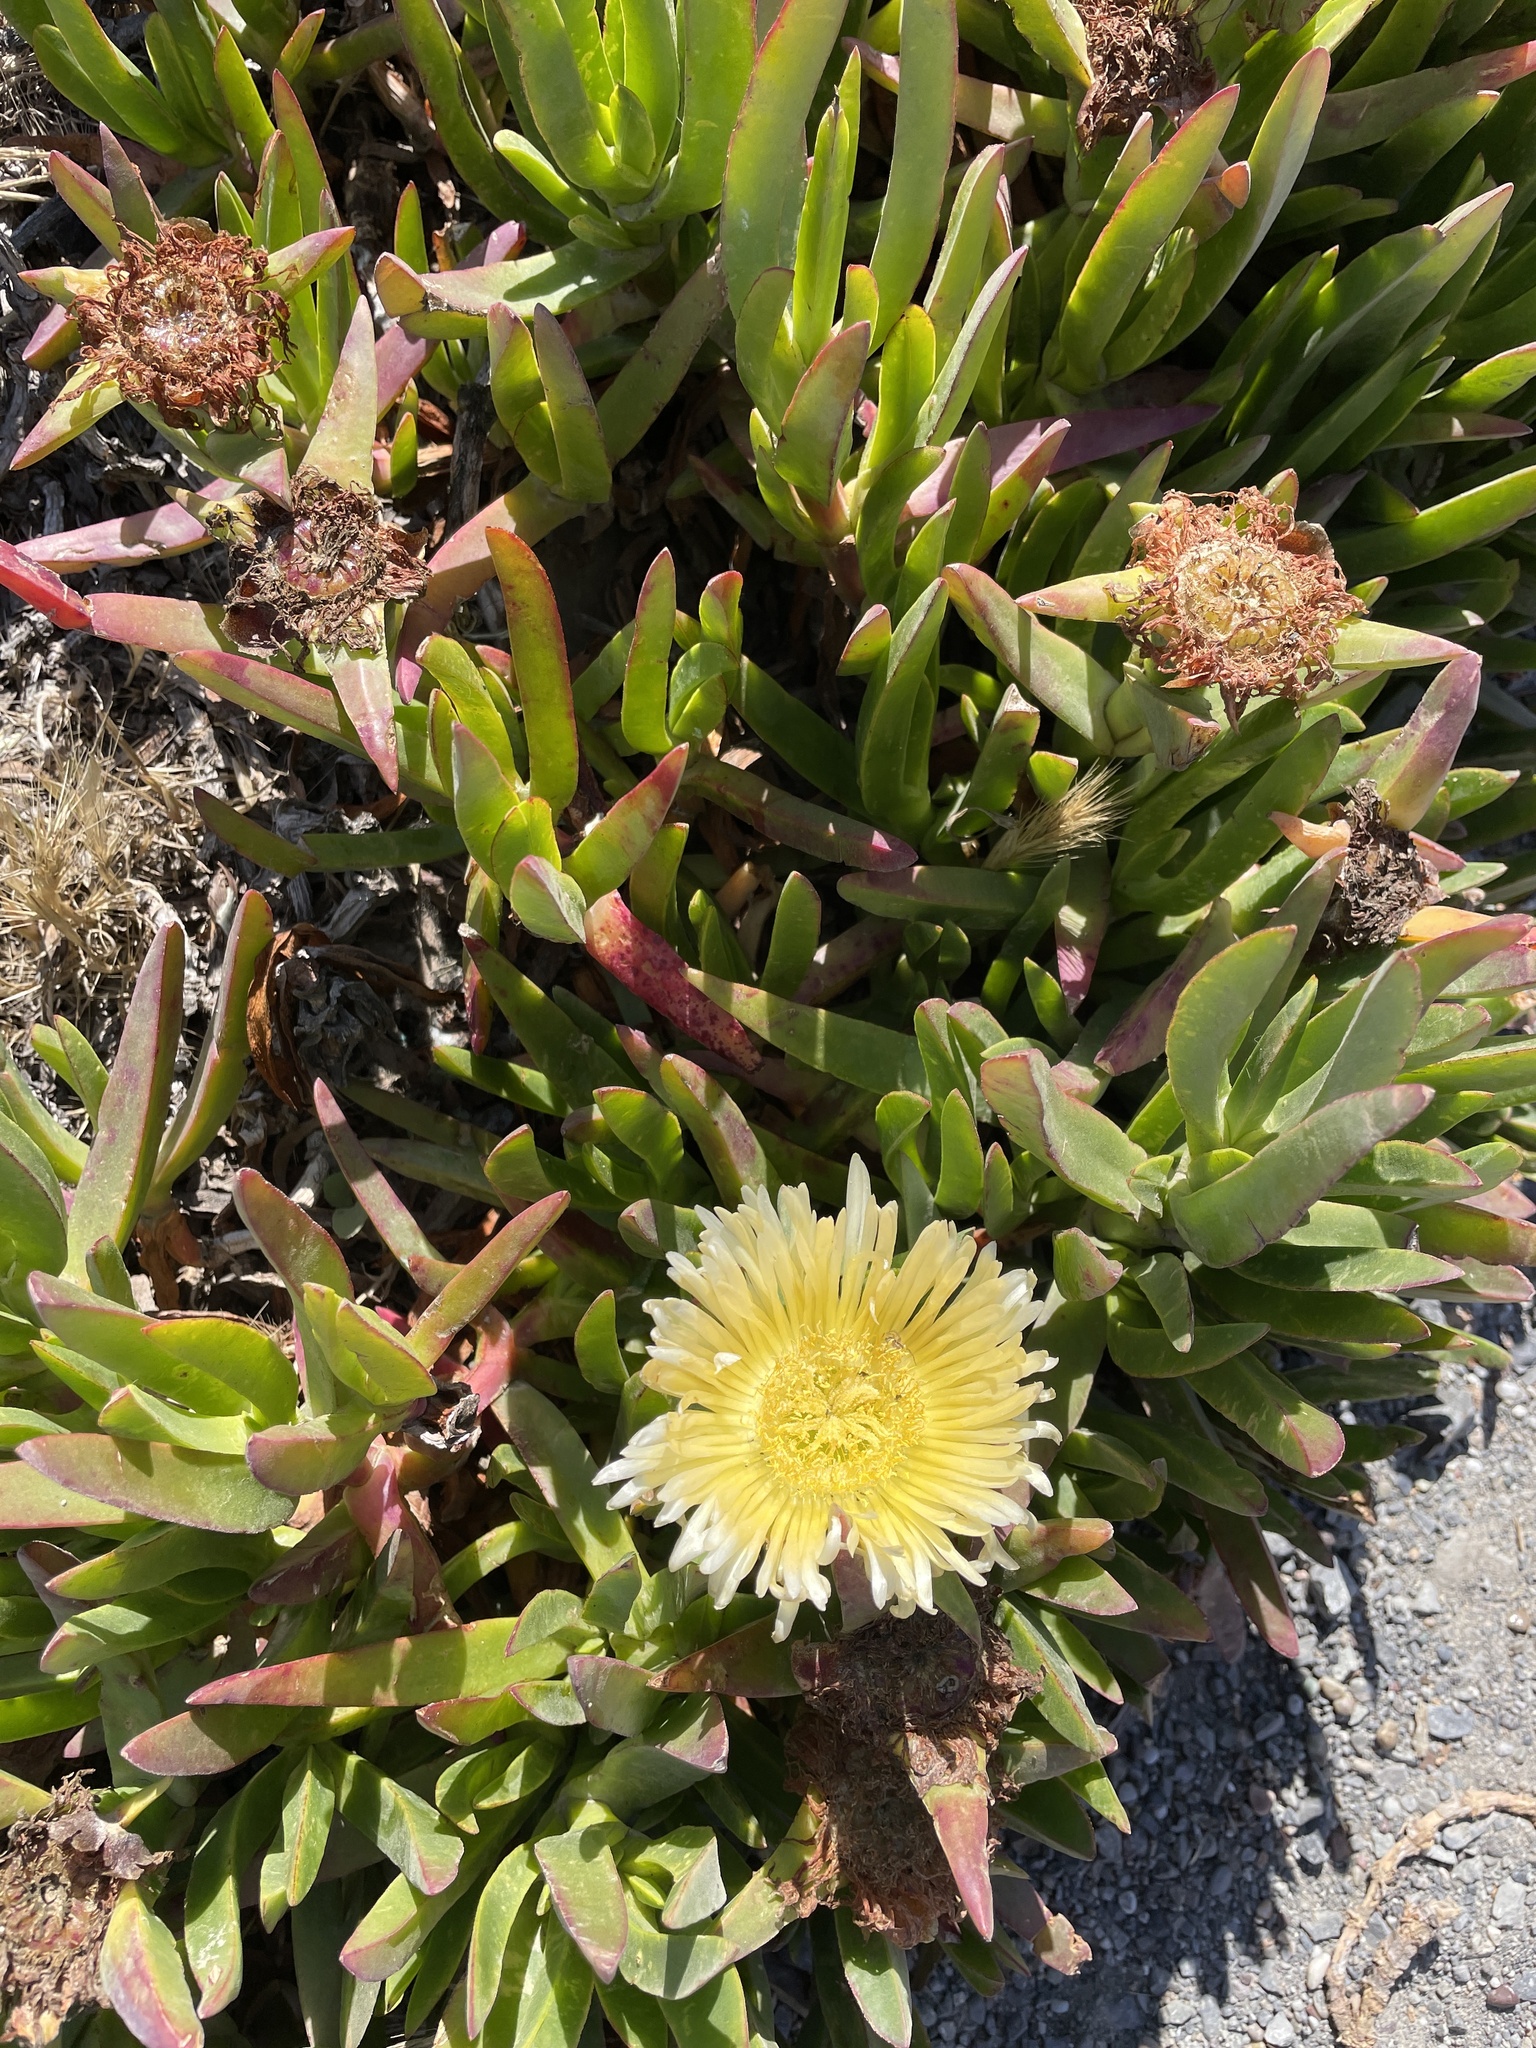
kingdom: Plantae
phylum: Tracheophyta
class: Magnoliopsida
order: Caryophyllales
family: Aizoaceae
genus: Carpobrotus
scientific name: Carpobrotus edulis
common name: Hottentot-fig
